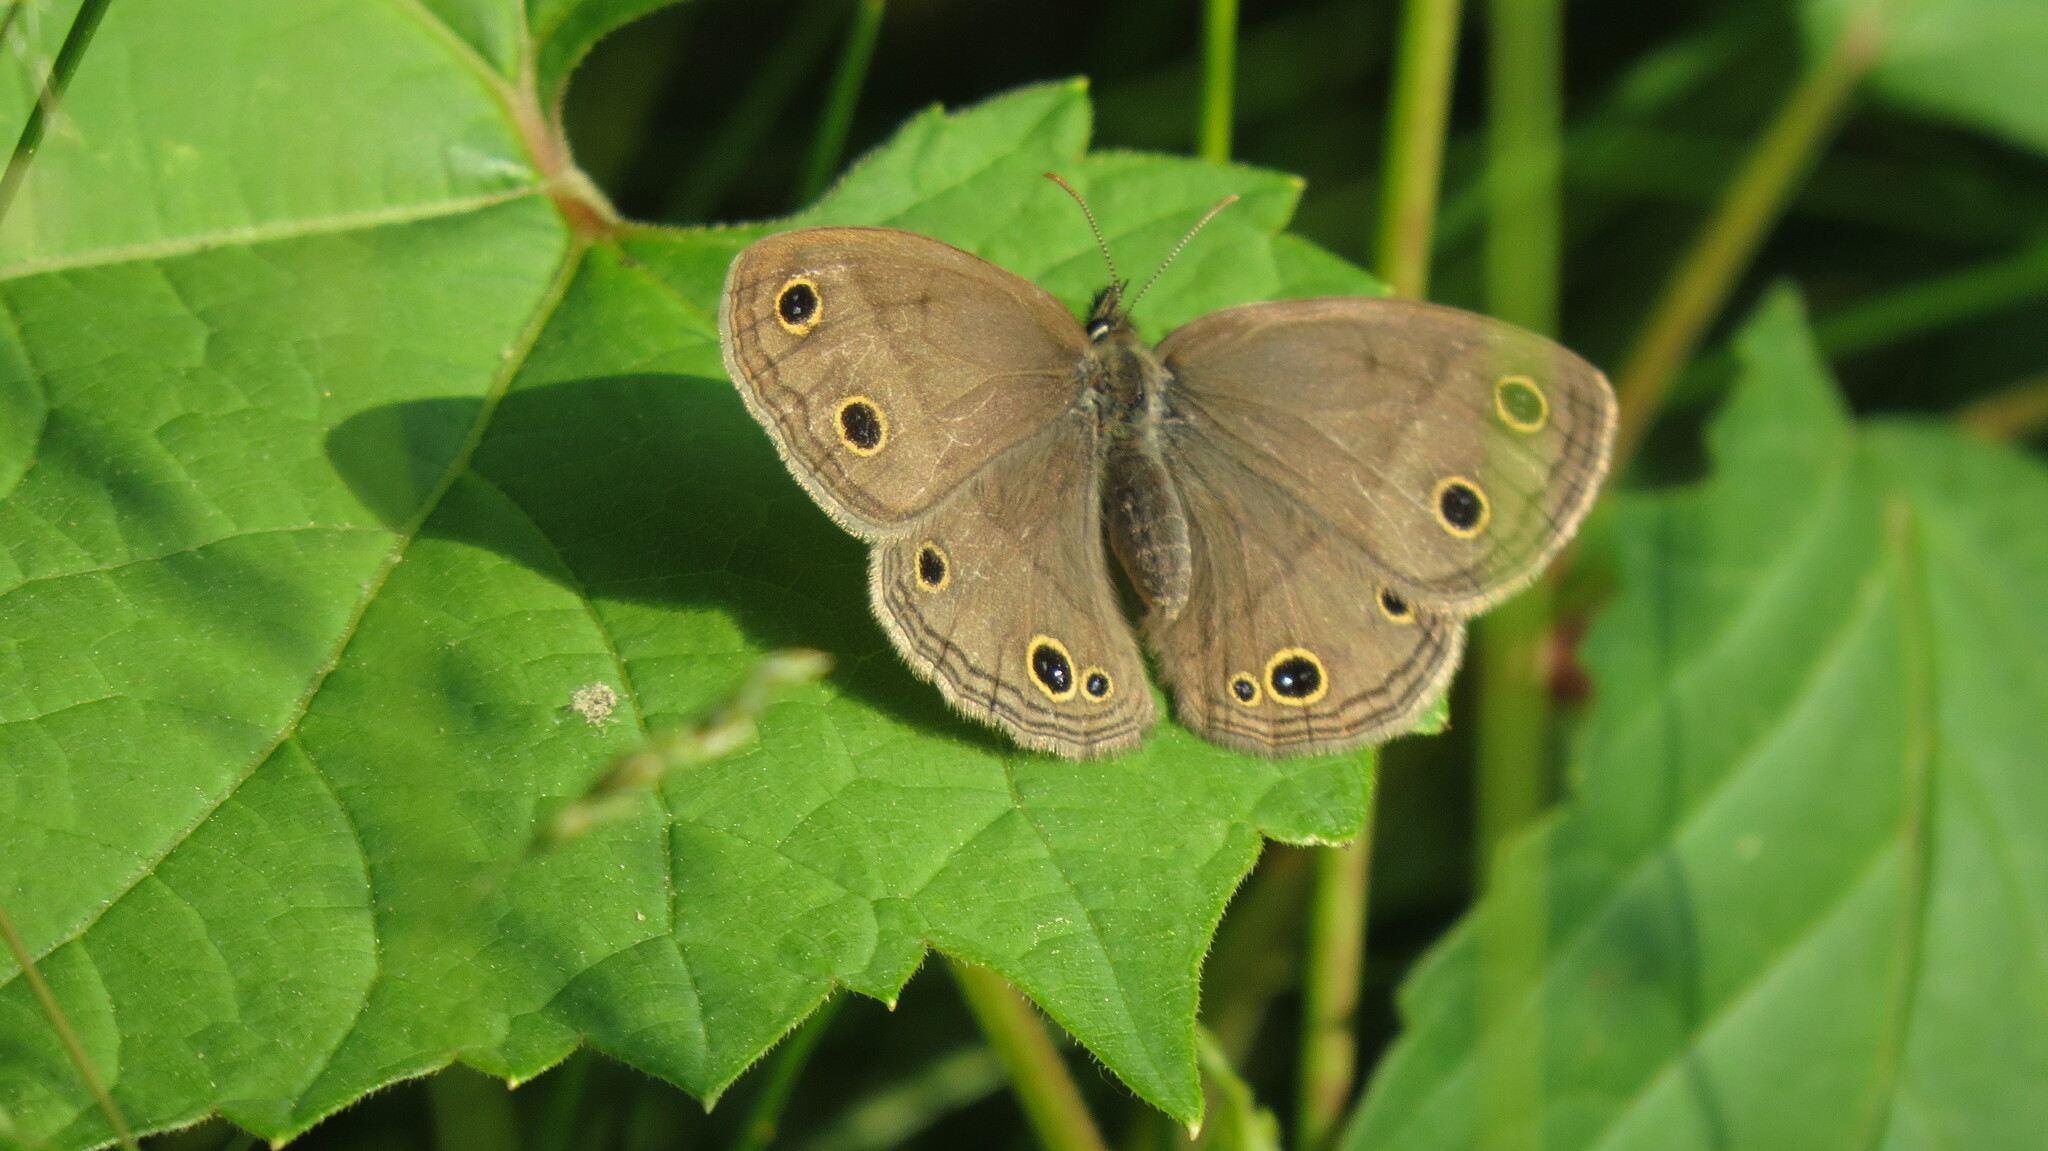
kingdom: Animalia
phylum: Arthropoda
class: Insecta
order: Lepidoptera
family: Nymphalidae
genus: Euptychia
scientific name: Euptychia cymela
